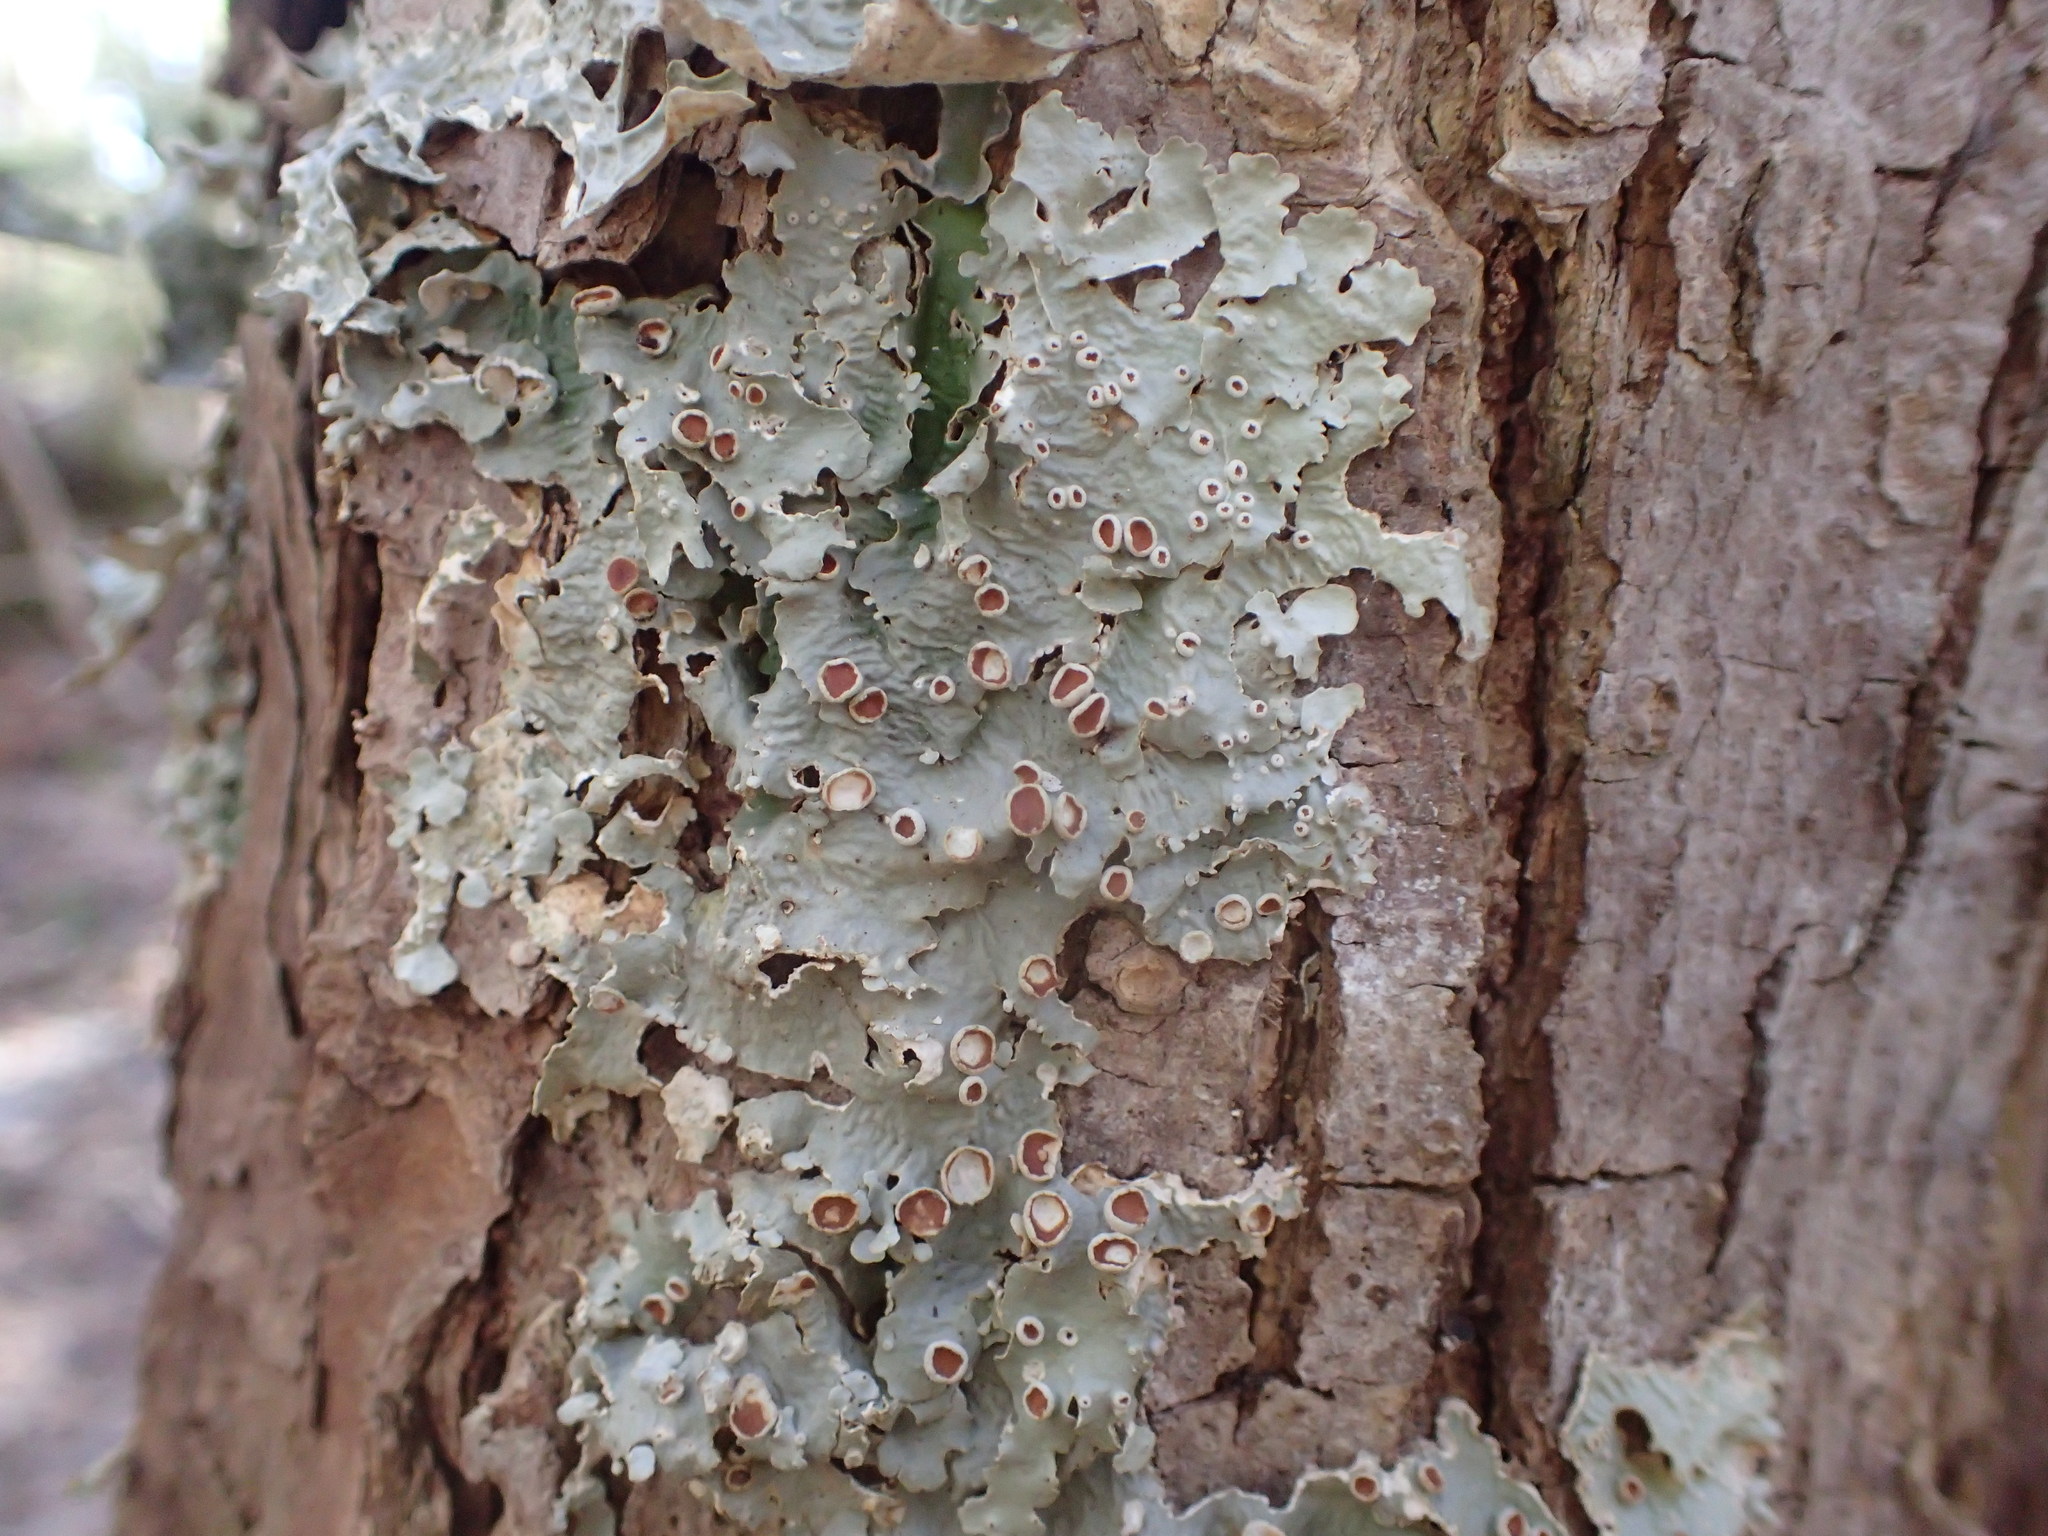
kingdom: Fungi
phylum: Ascomycota
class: Lecanoromycetes
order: Peltigerales
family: Lobariaceae
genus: Ricasolia
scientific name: Ricasolia quercizans
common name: Smooth lungwort
